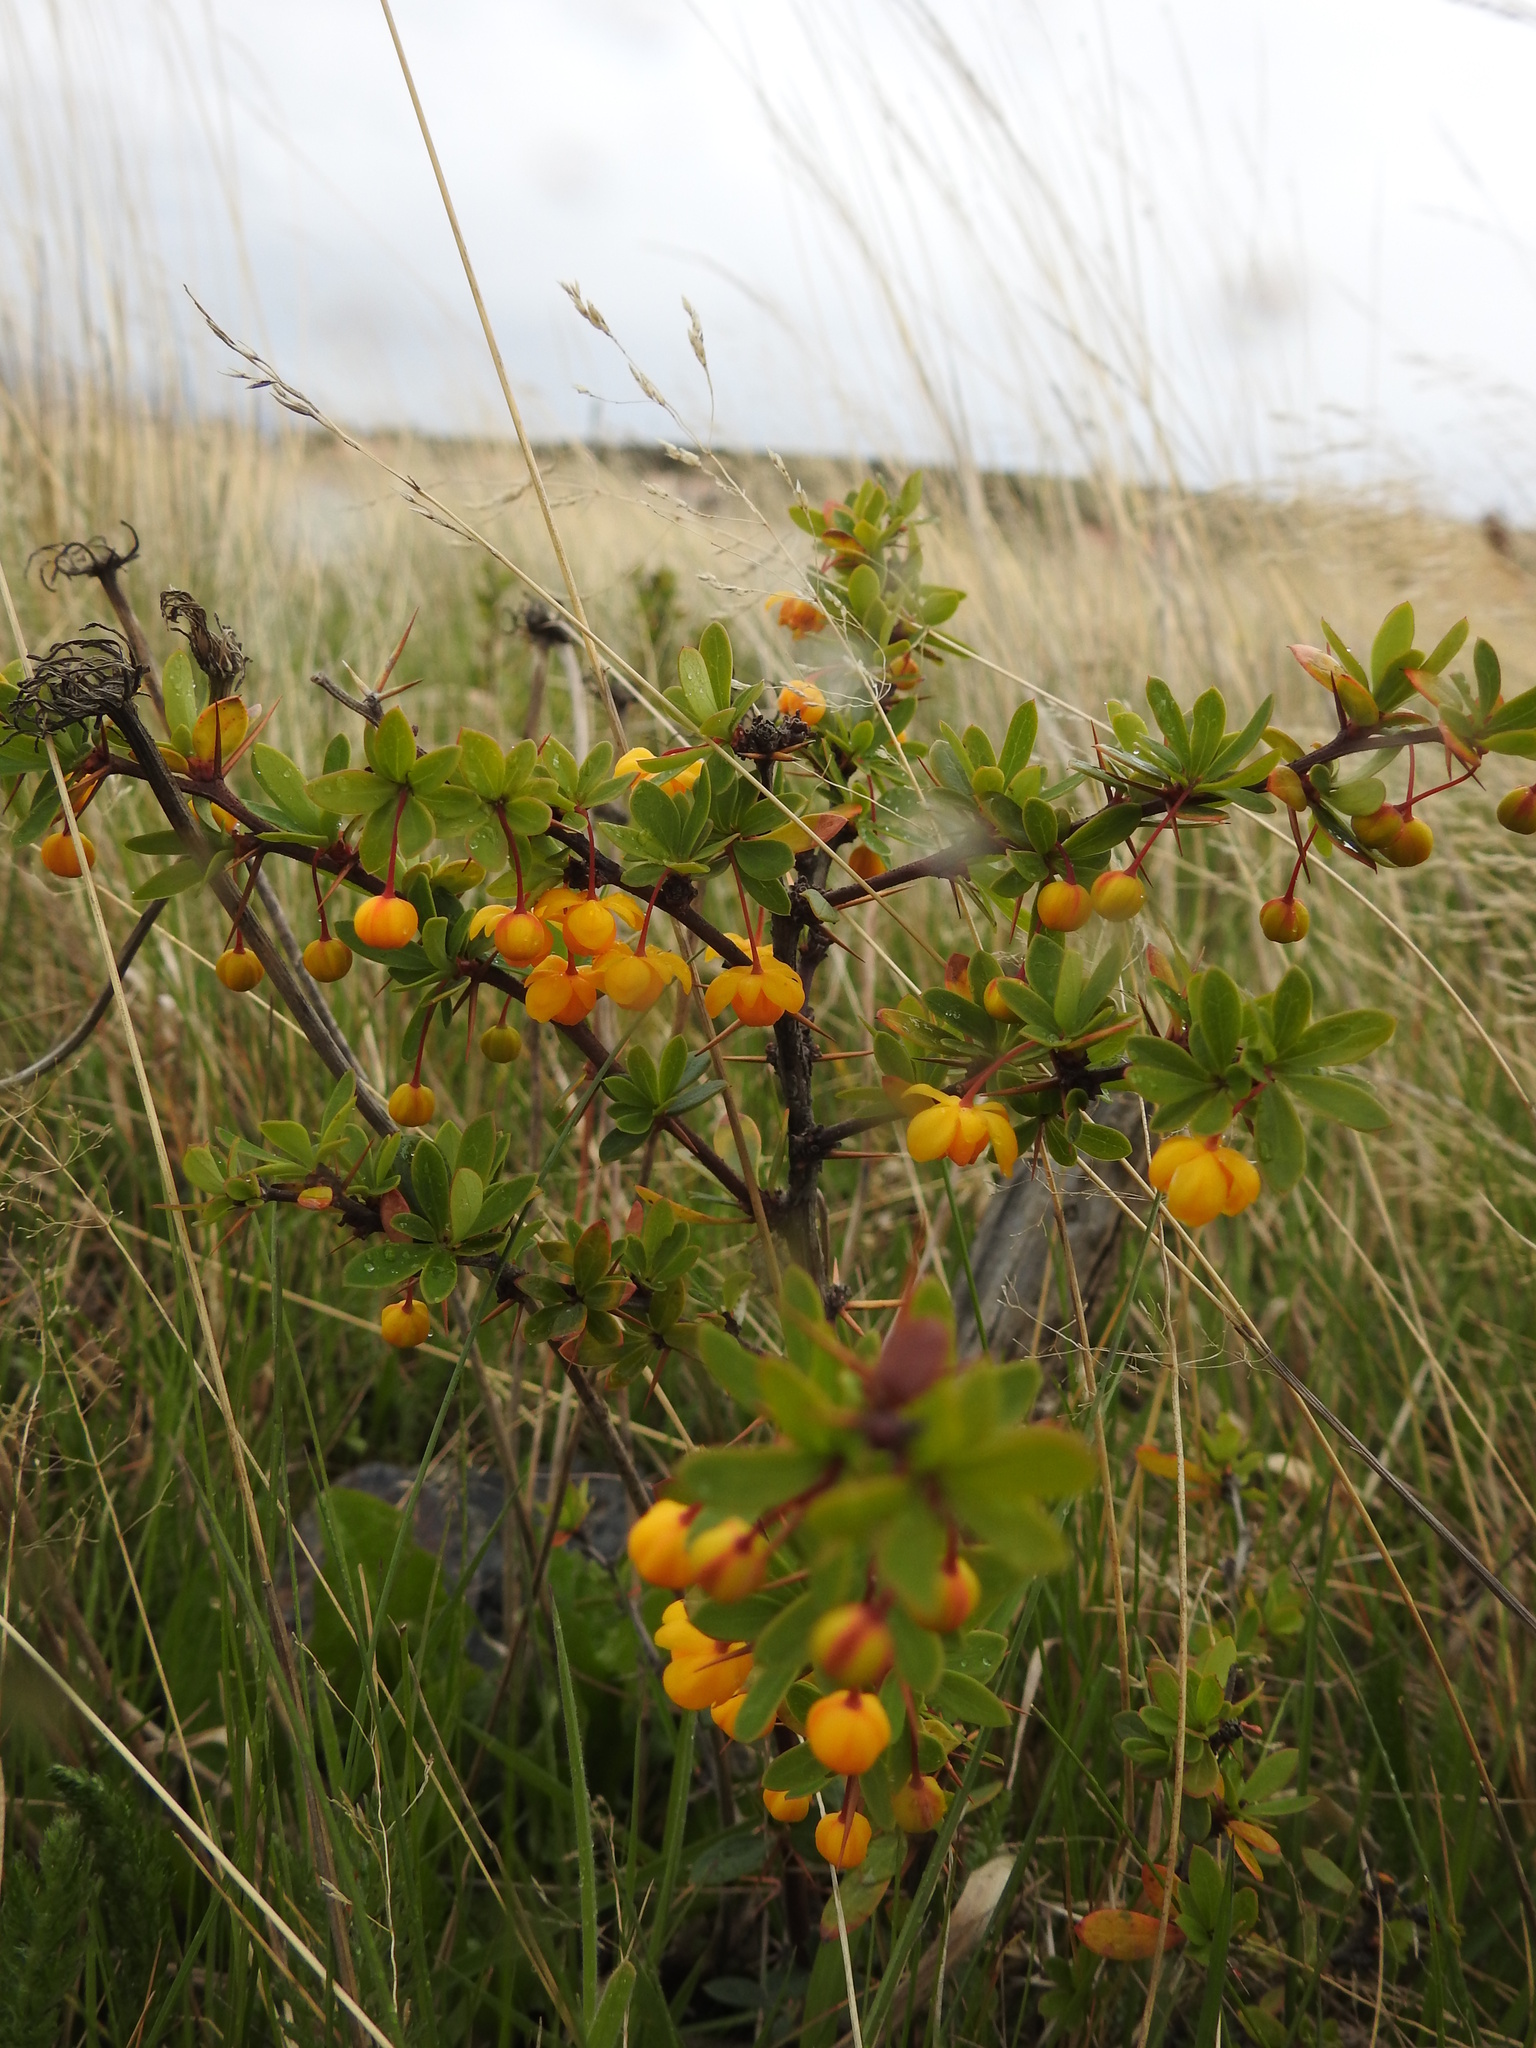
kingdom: Plantae
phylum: Tracheophyta
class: Magnoliopsida
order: Ranunculales
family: Berberidaceae
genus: Berberis
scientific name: Berberis microphylla
